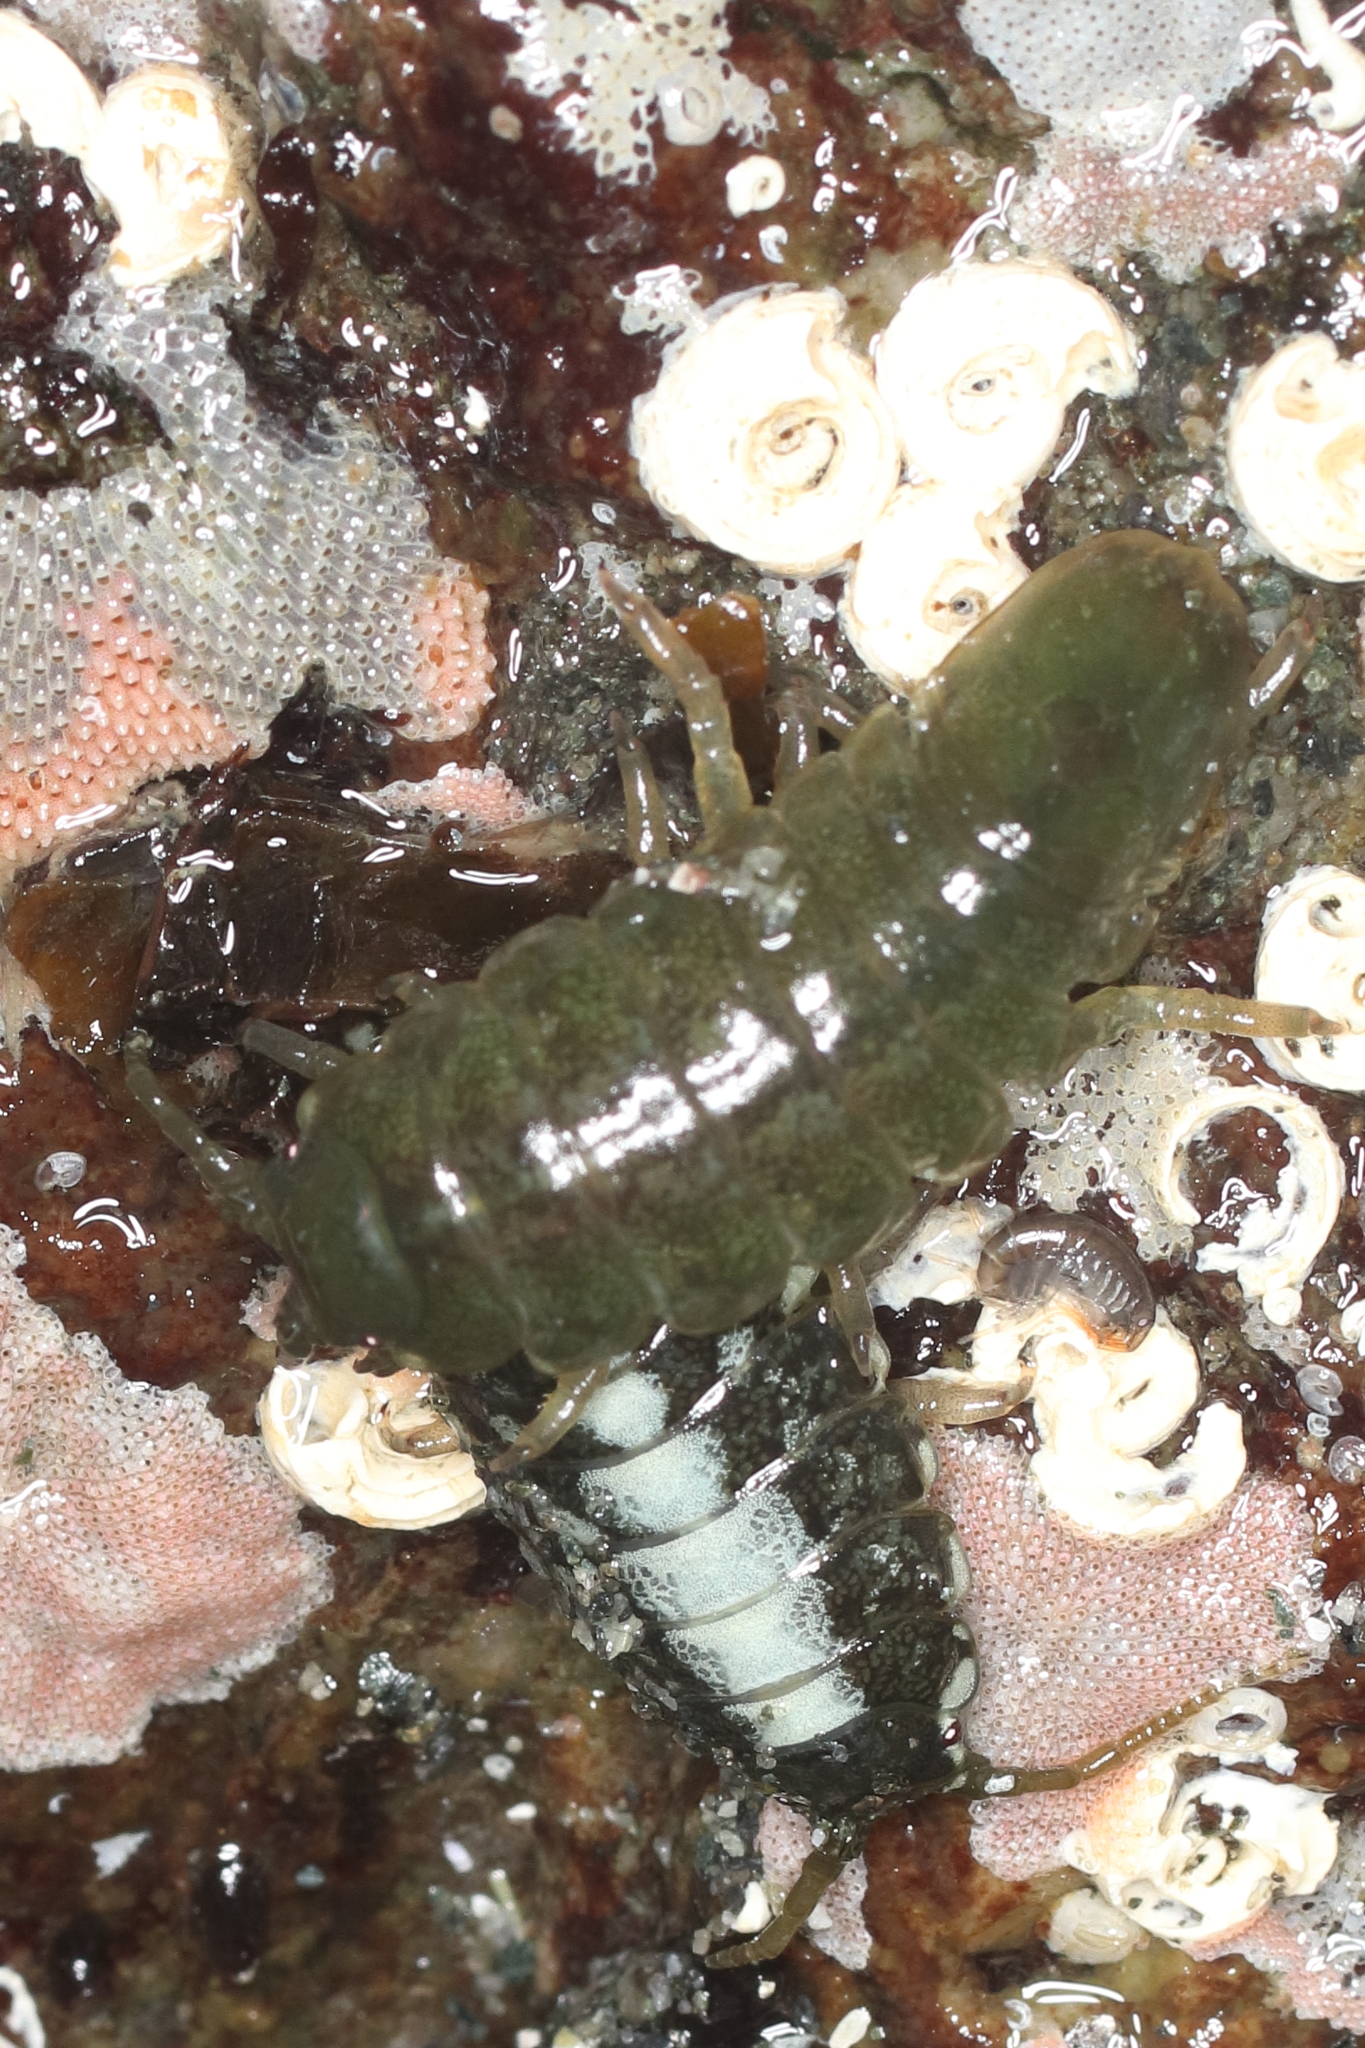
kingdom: Animalia
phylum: Arthropoda
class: Malacostraca
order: Isopoda
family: Idoteidae
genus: Pentidotea
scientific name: Pentidotea wosnesenskii
